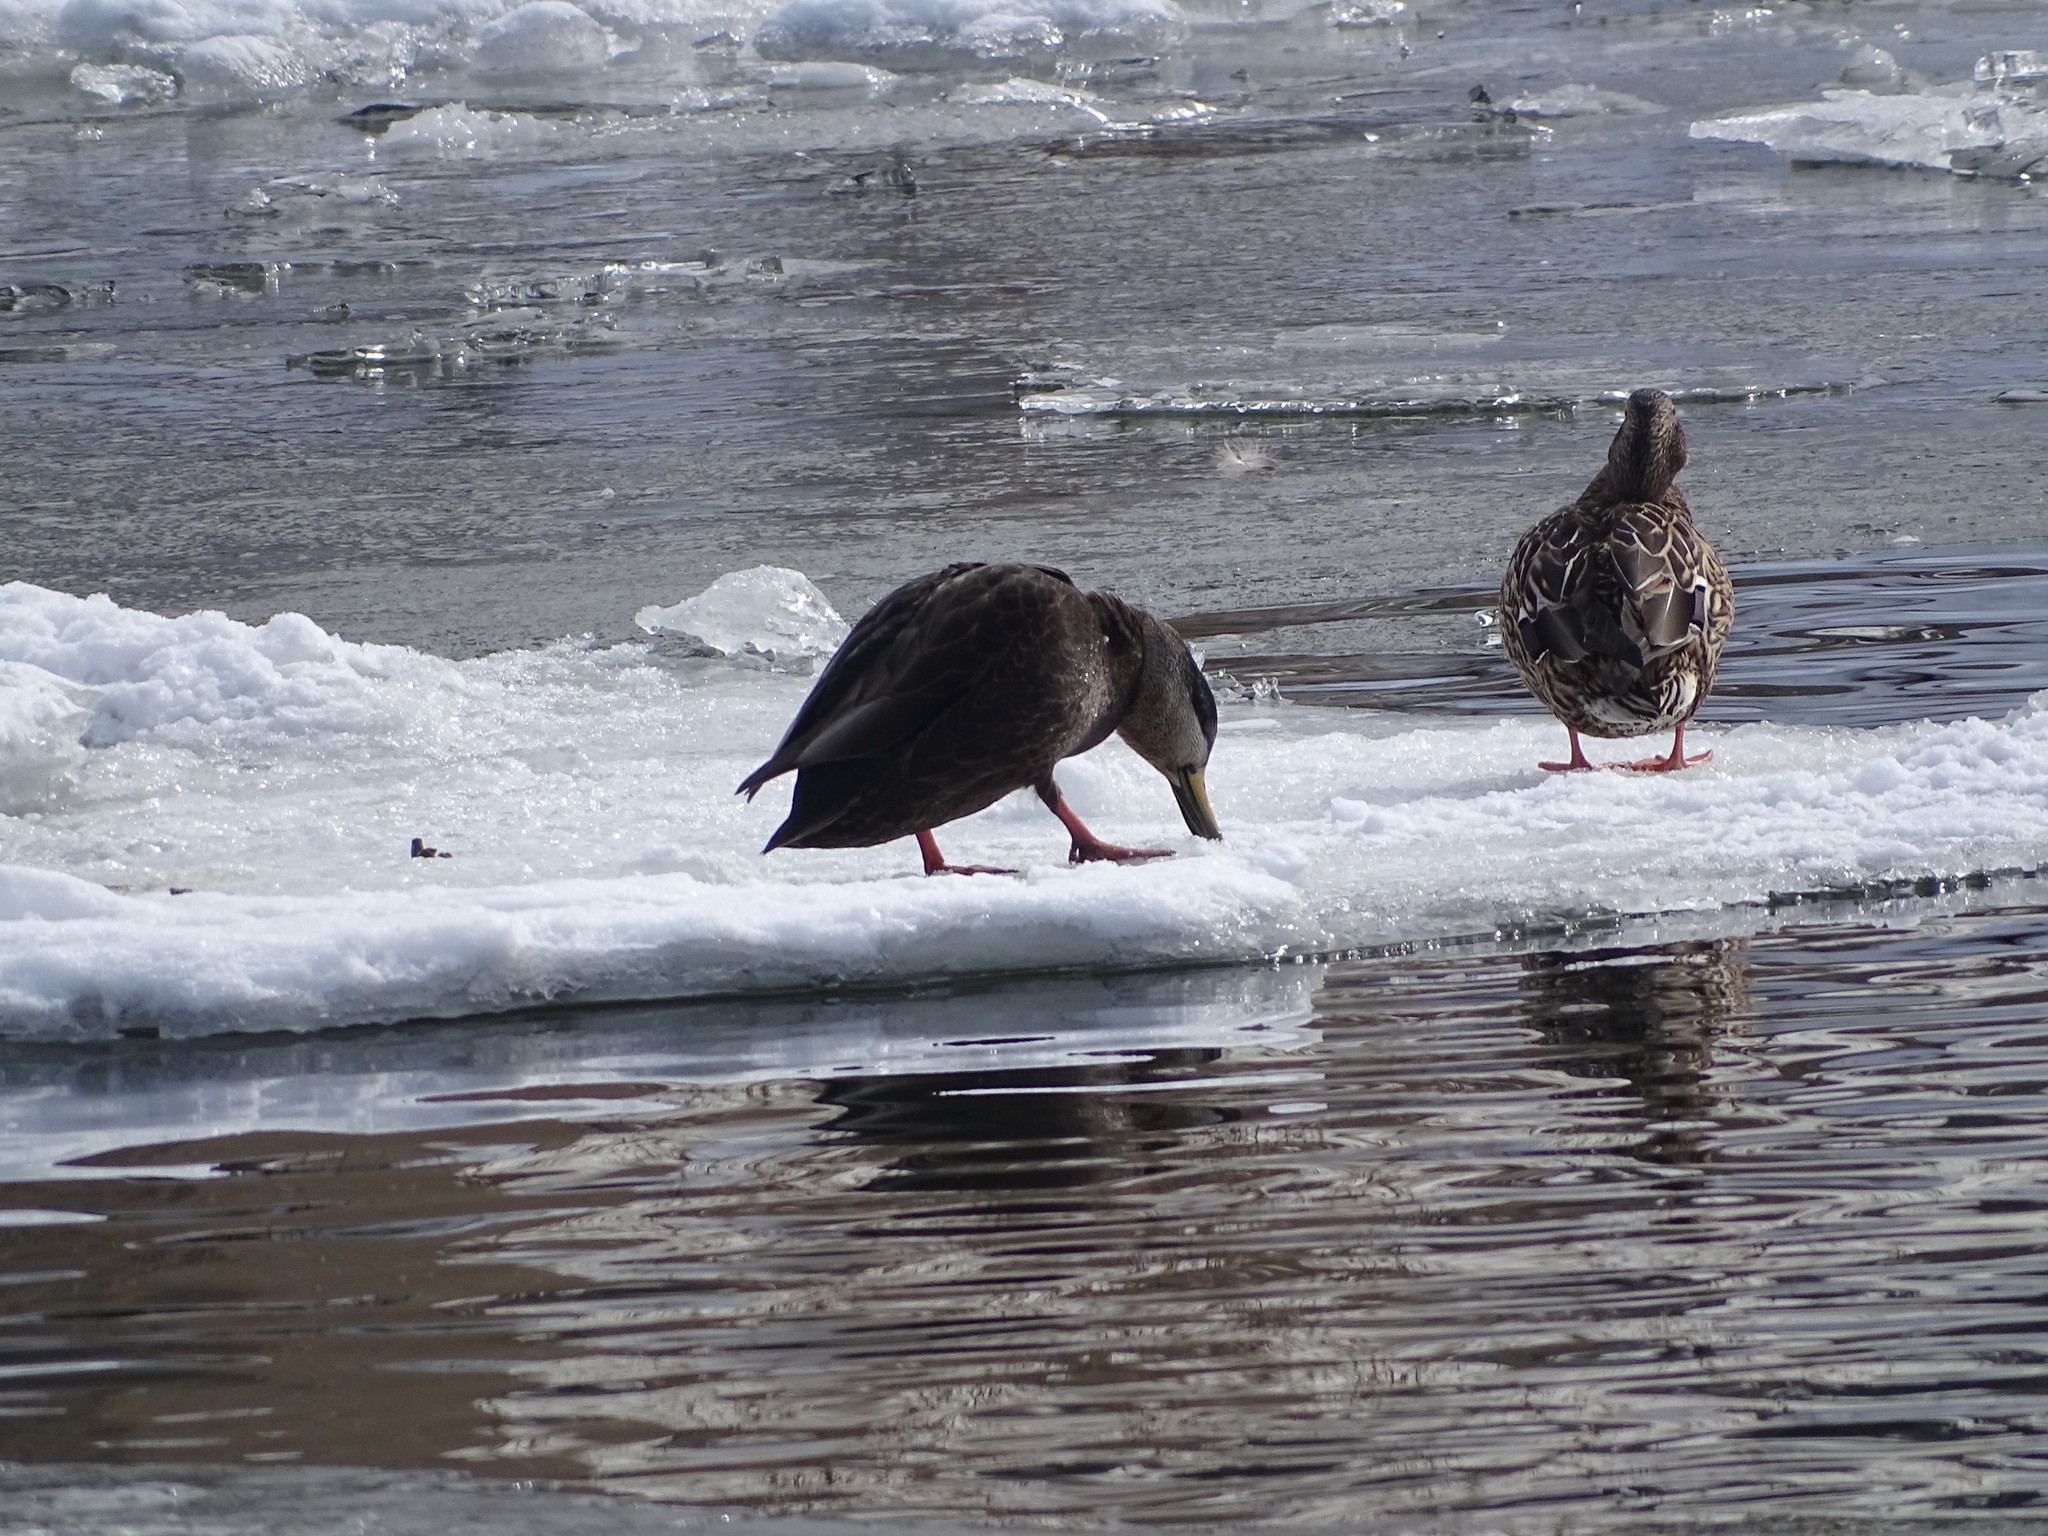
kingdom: Animalia
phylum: Chordata
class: Aves
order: Anseriformes
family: Anatidae
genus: Anas
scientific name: Anas rubripes
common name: American black duck
